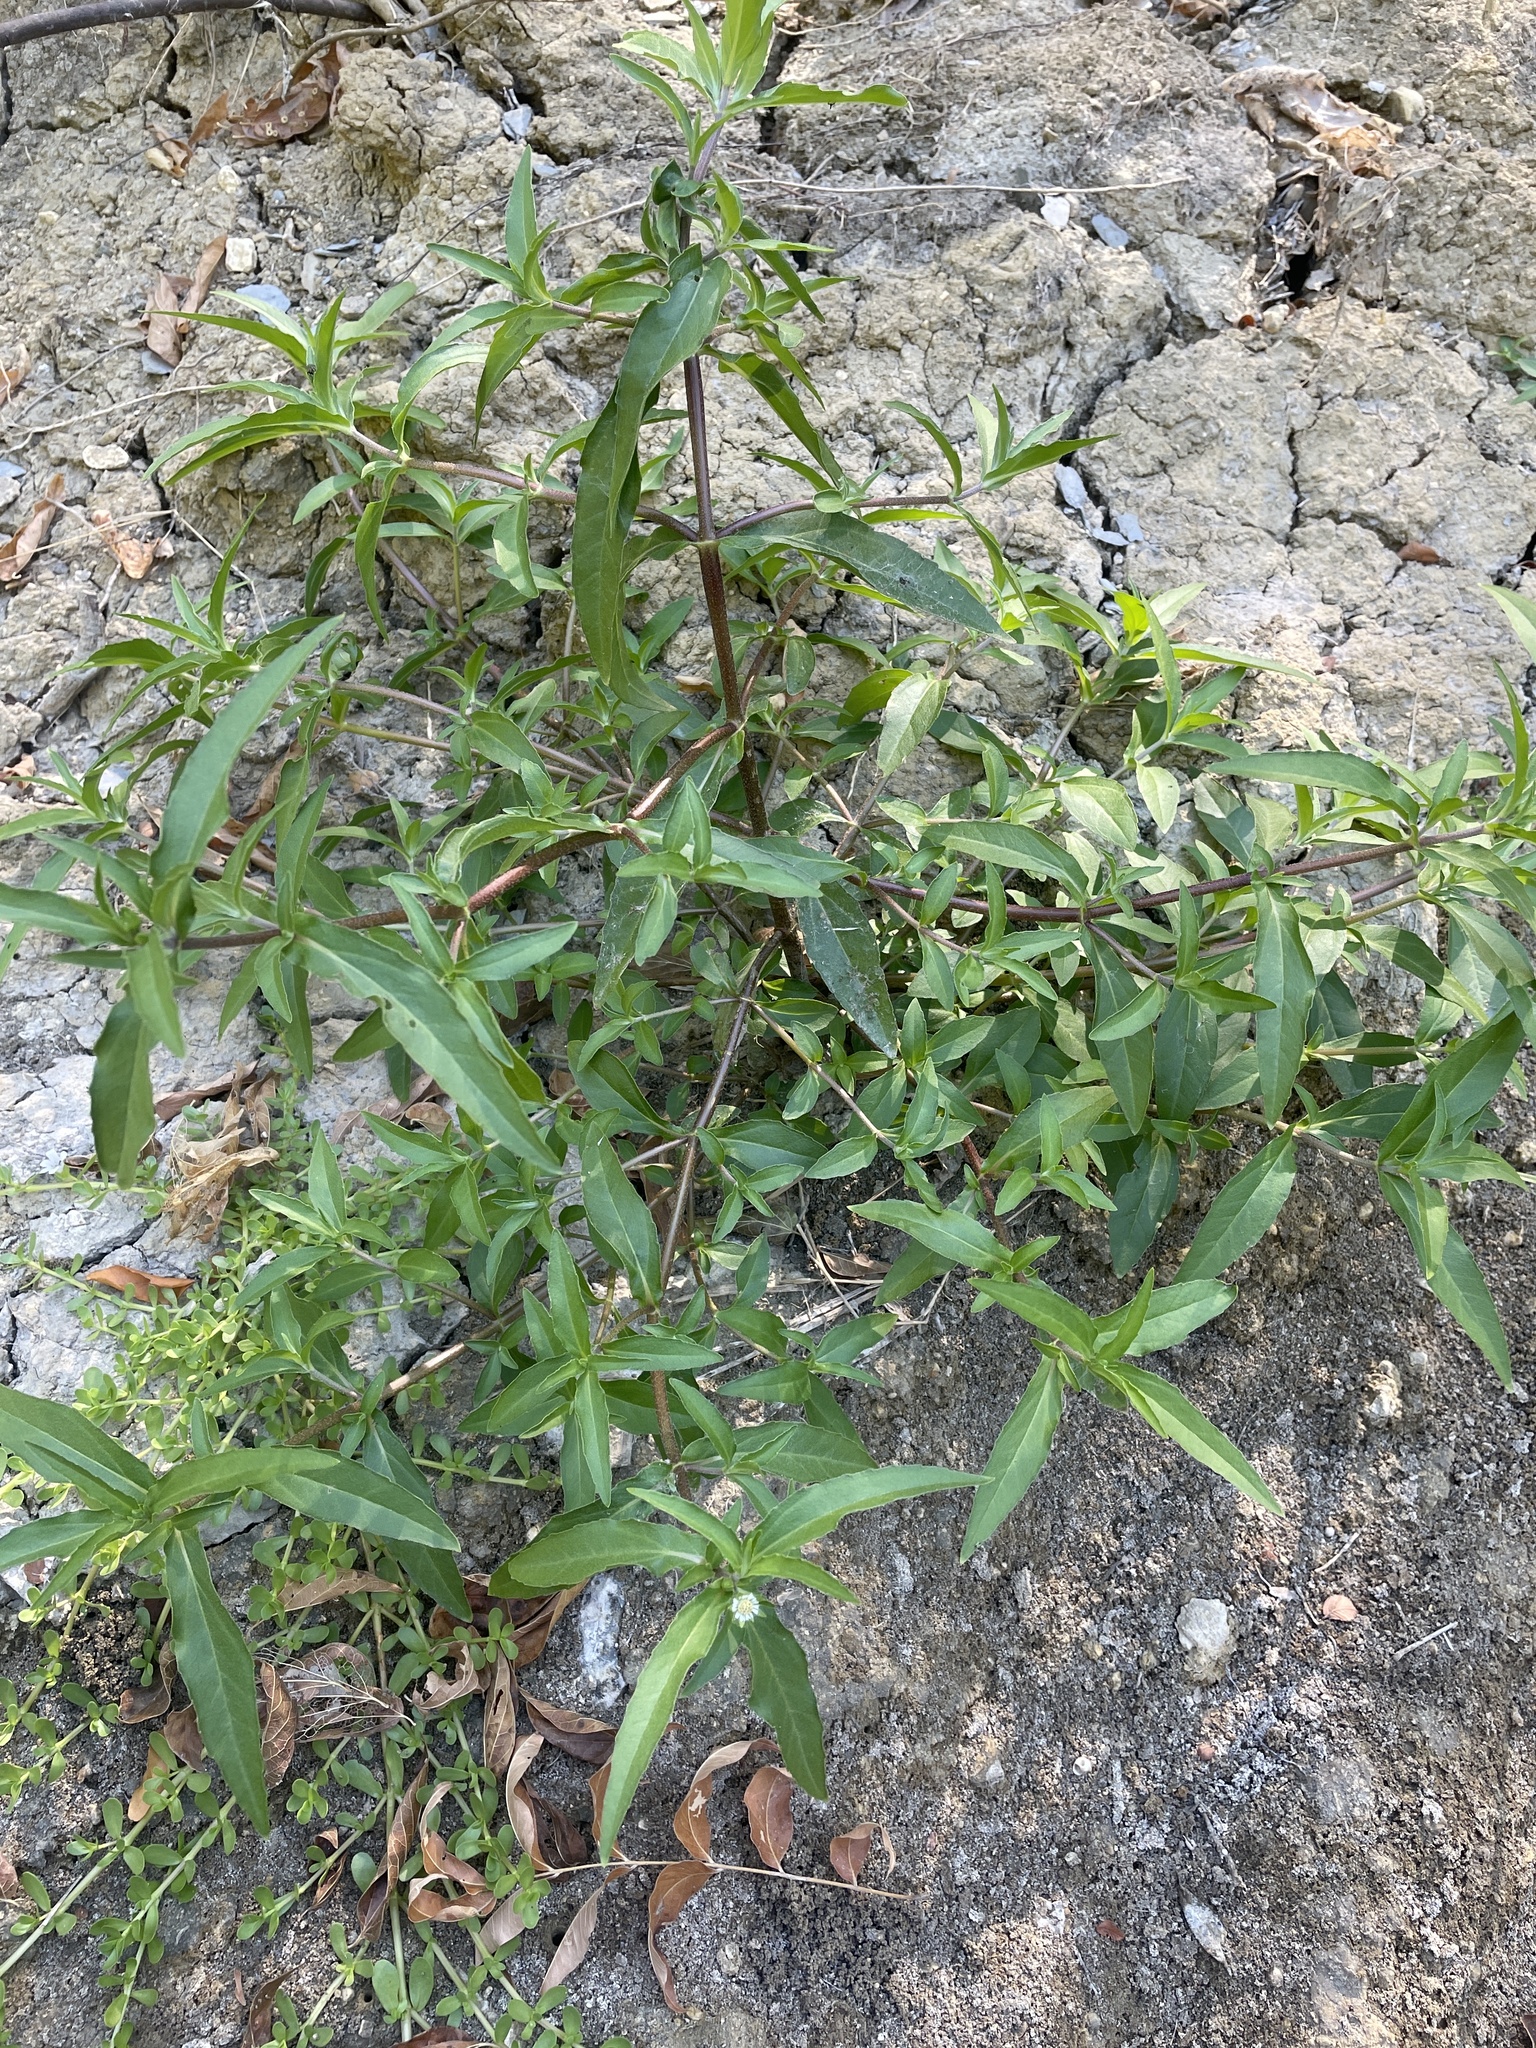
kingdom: Plantae
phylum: Tracheophyta
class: Magnoliopsida
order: Asterales
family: Asteraceae
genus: Eclipta
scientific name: Eclipta prostrata
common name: False daisy
